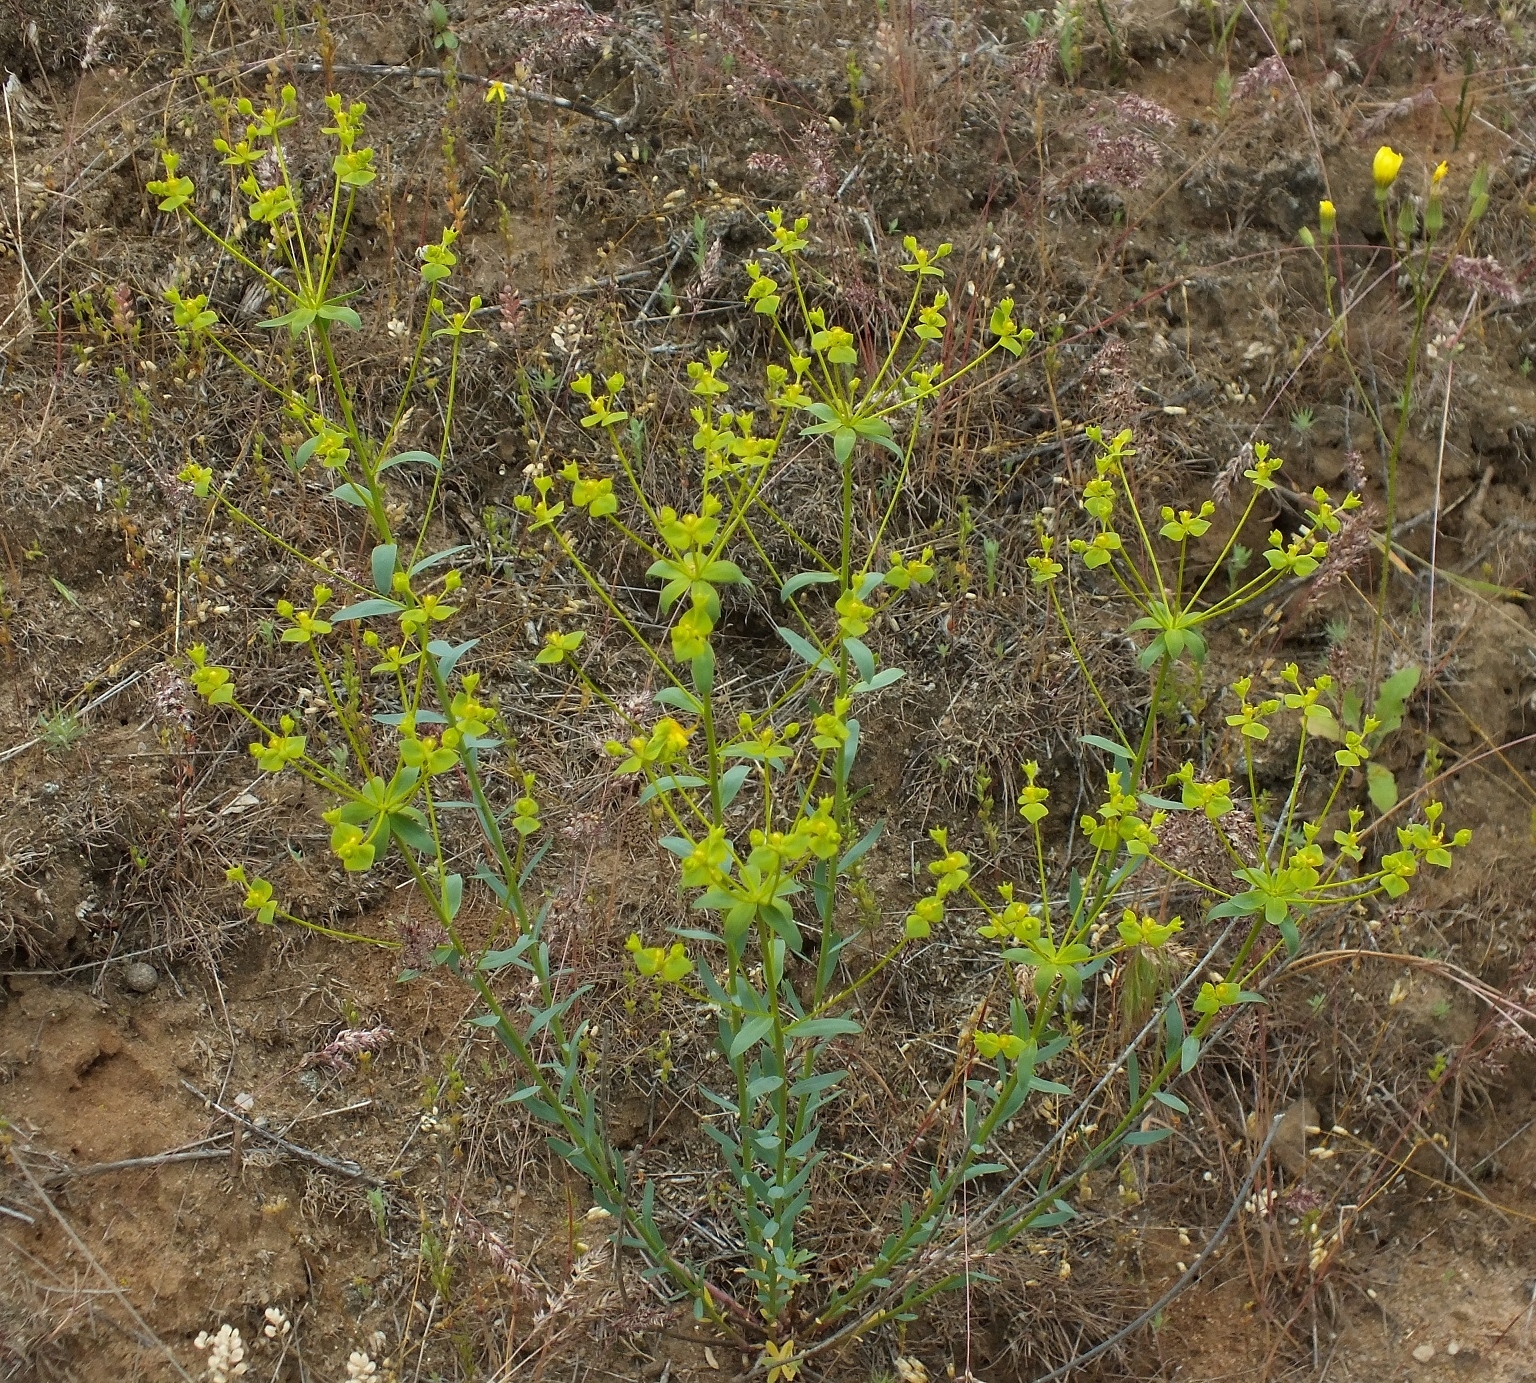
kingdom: Plantae
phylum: Tracheophyta
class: Magnoliopsida
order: Malpighiales
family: Euphorbiaceae
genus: Euphorbia
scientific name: Euphorbia seguieriana
